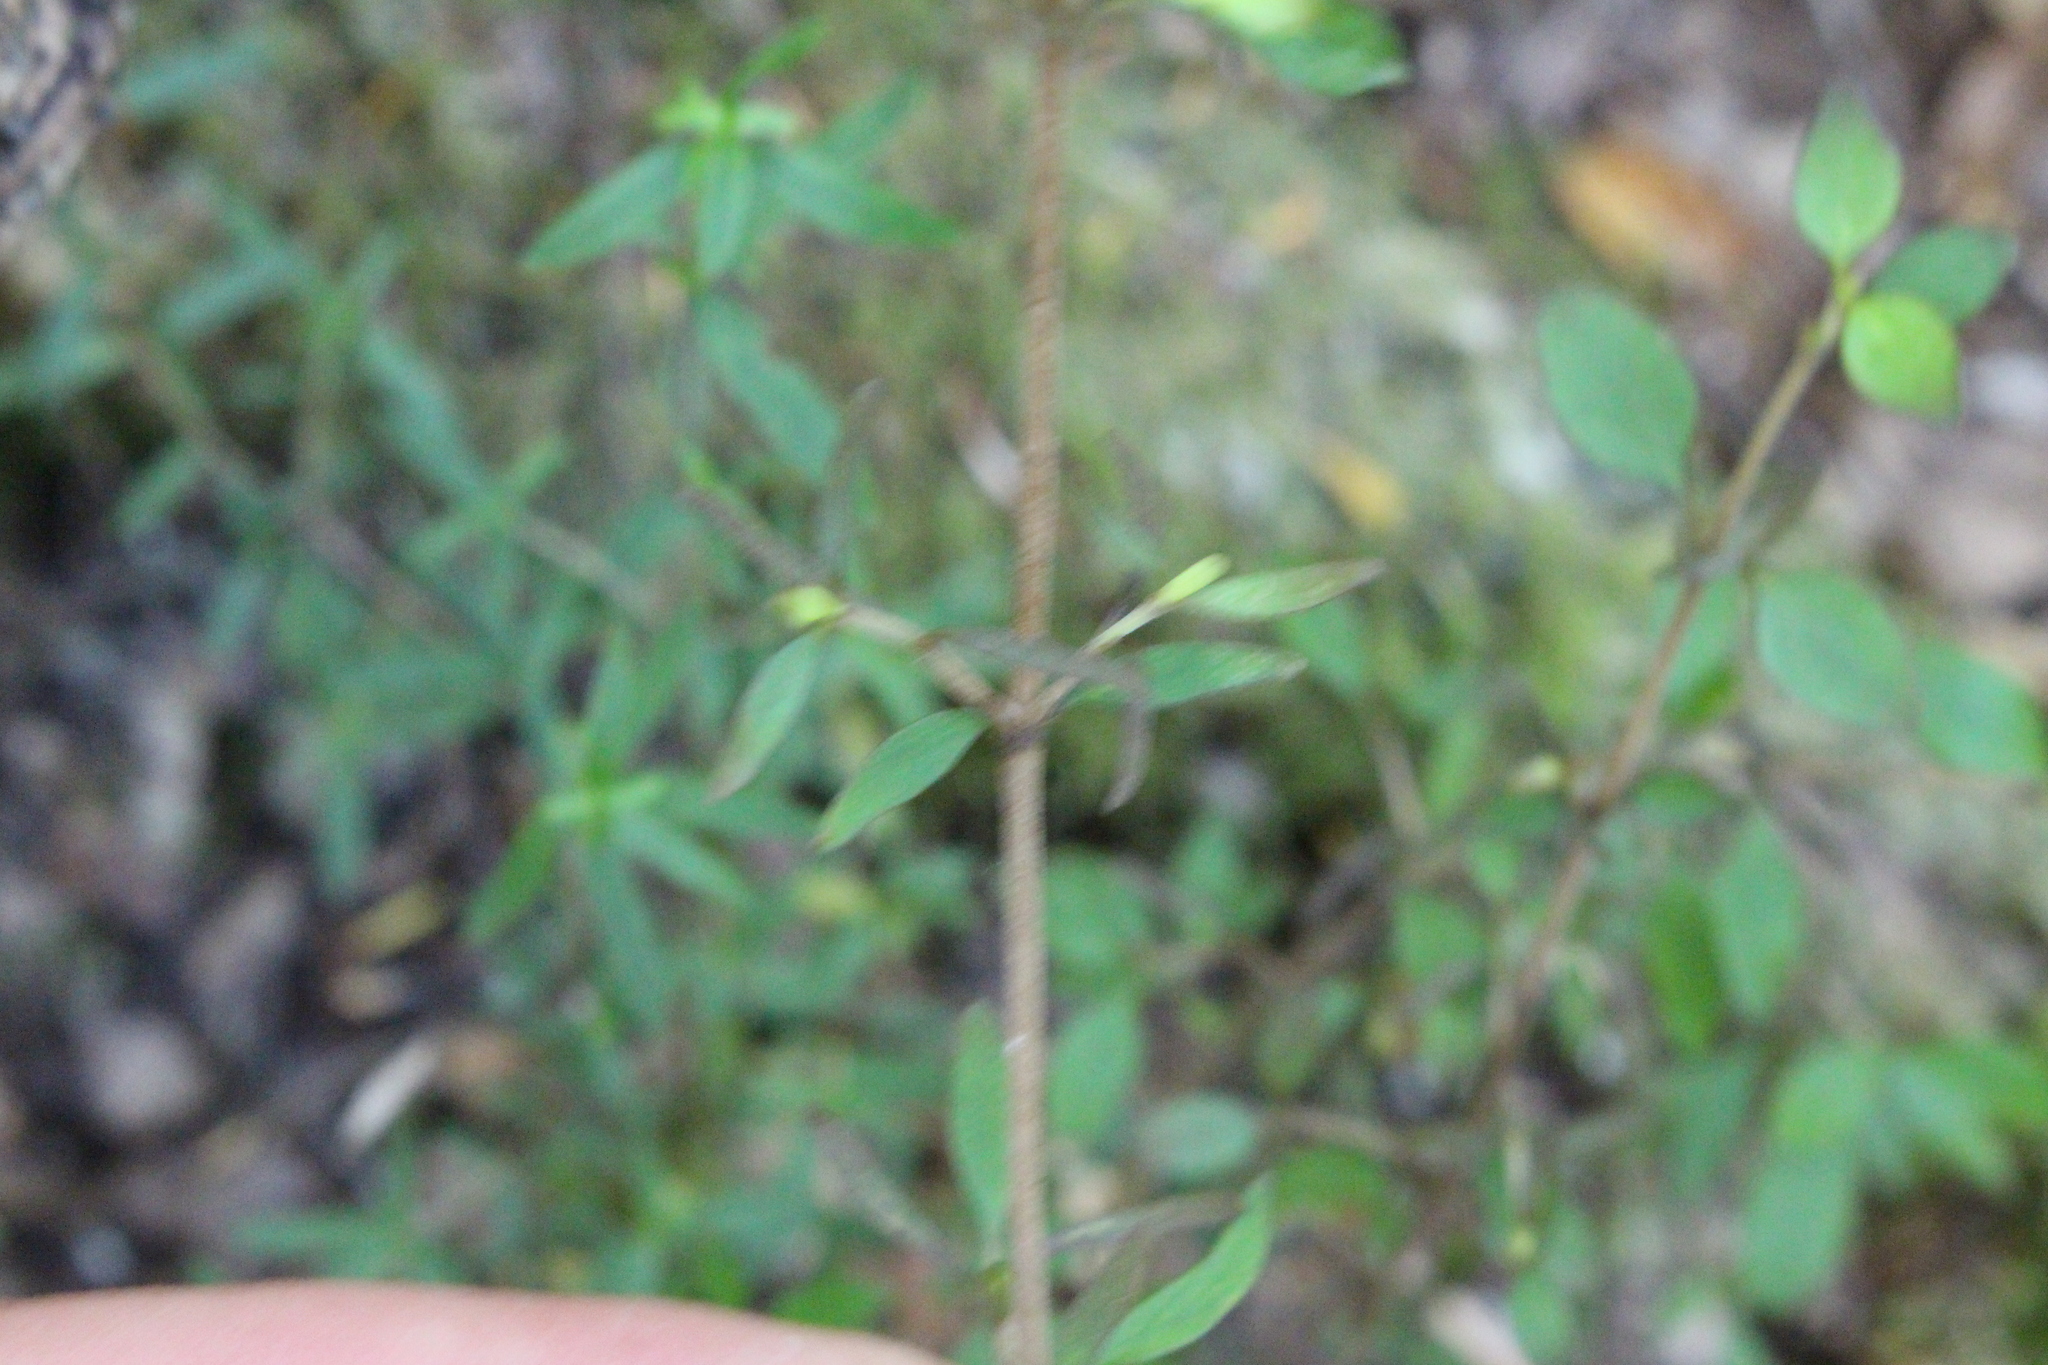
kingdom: Plantae
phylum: Tracheophyta
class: Magnoliopsida
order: Gentianales
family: Rubiaceae
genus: Coprosma
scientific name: Coprosma cunninghamii
